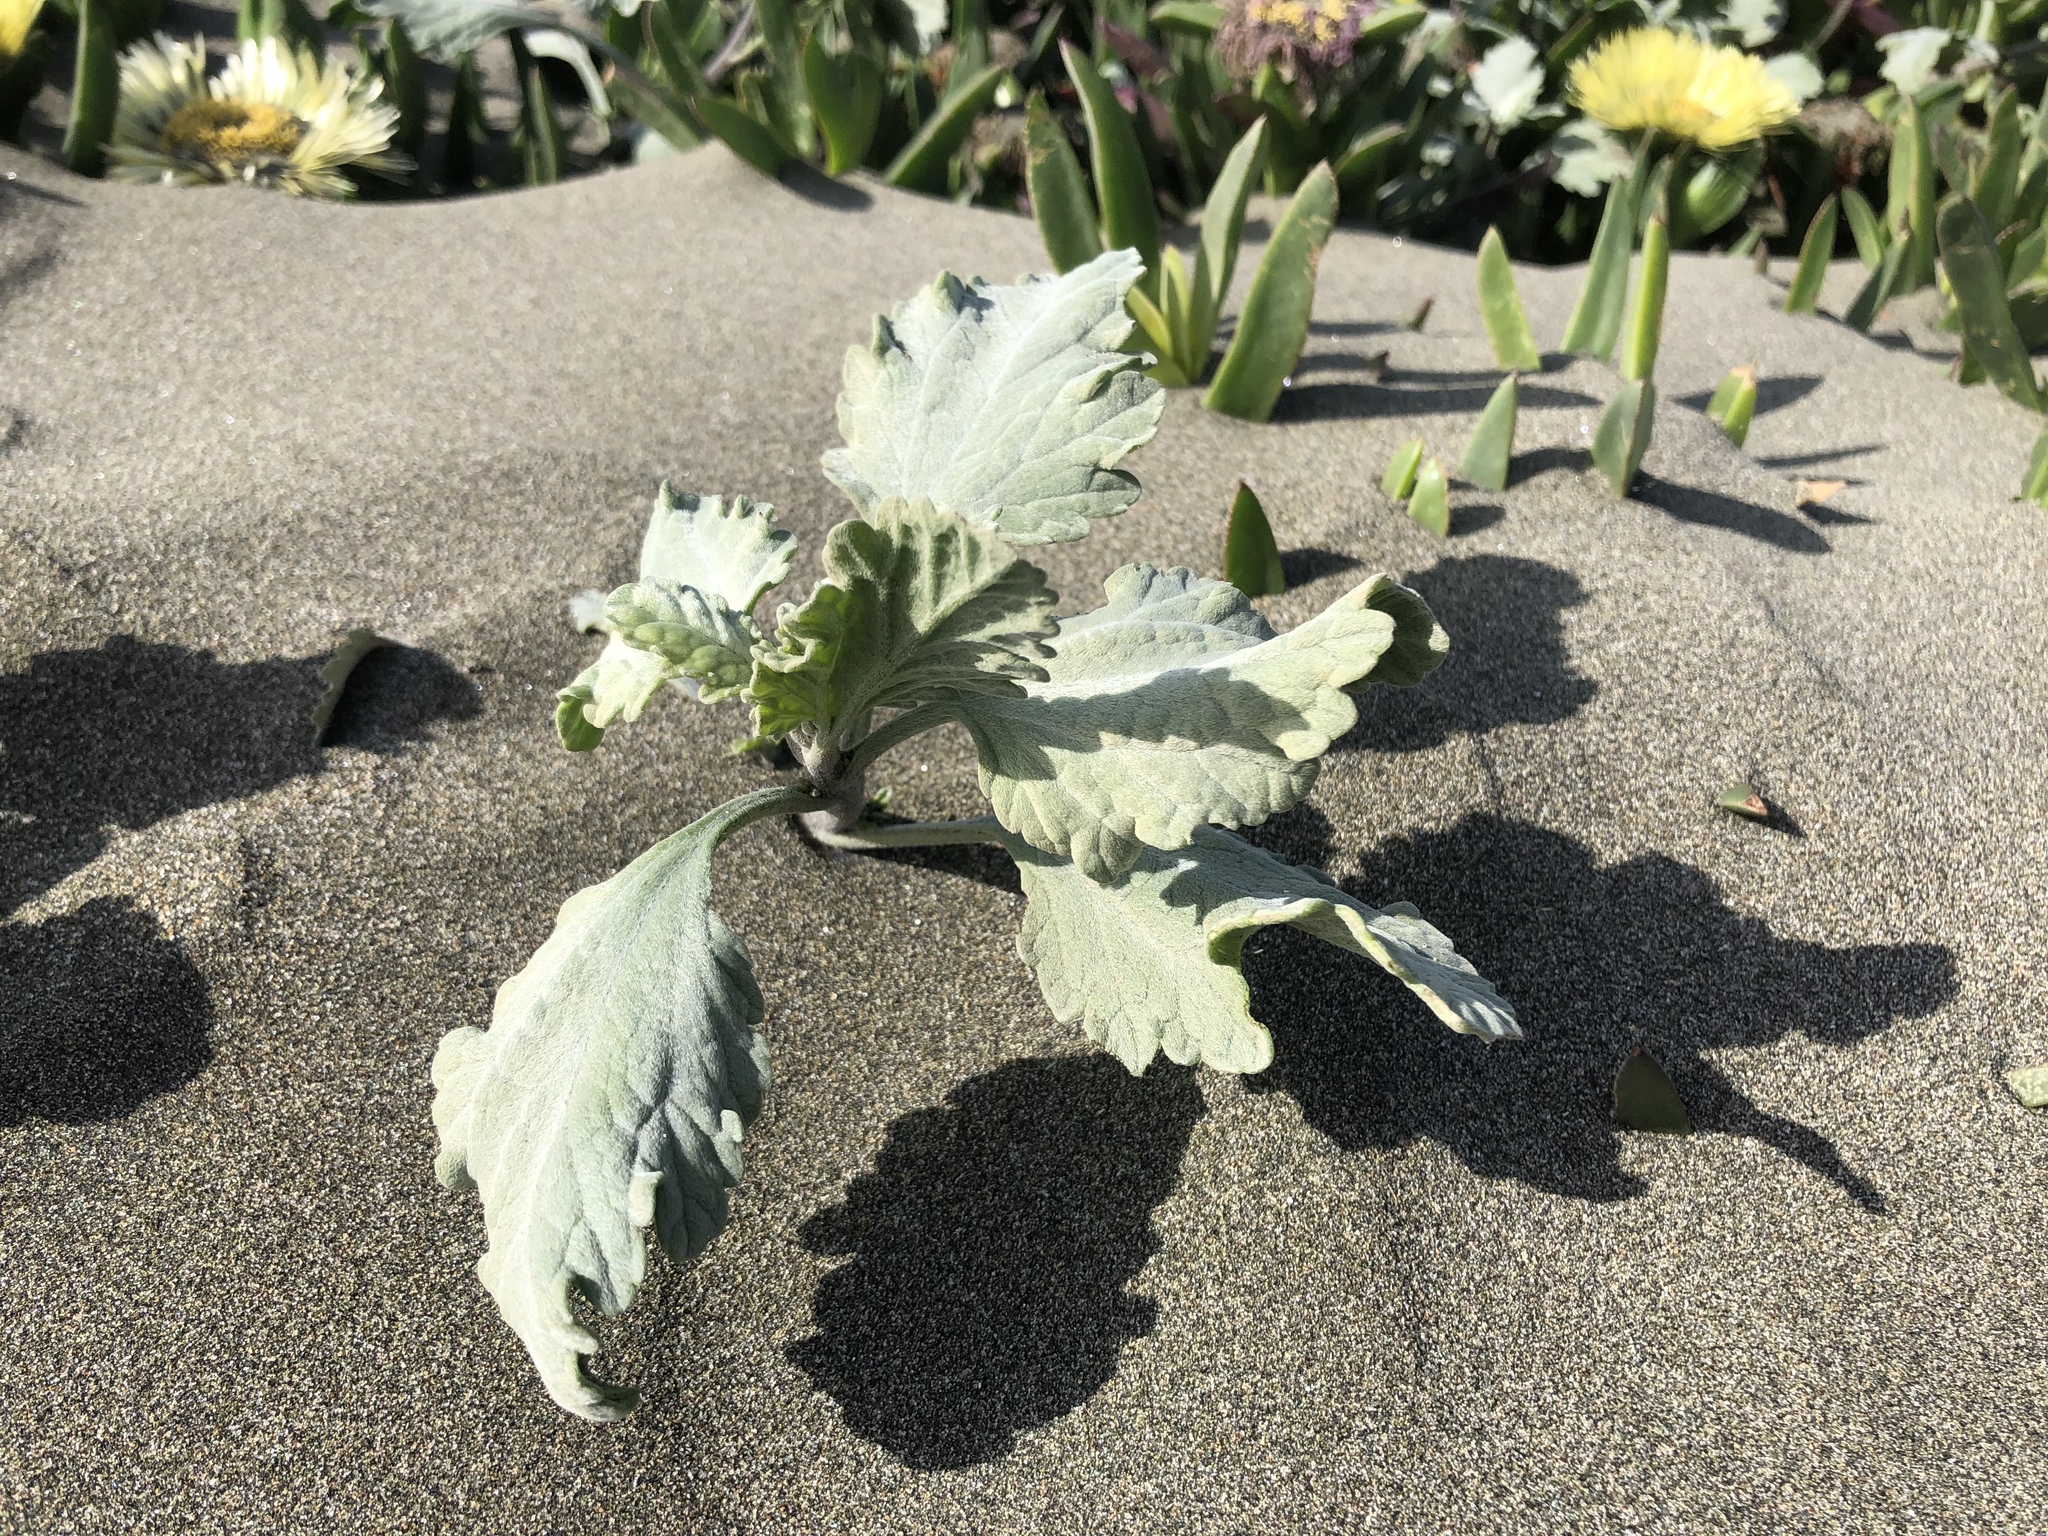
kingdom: Plantae
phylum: Tracheophyta
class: Magnoliopsida
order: Asterales
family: Asteraceae
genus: Ambrosia
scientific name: Ambrosia chamissonis
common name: Beachbur
